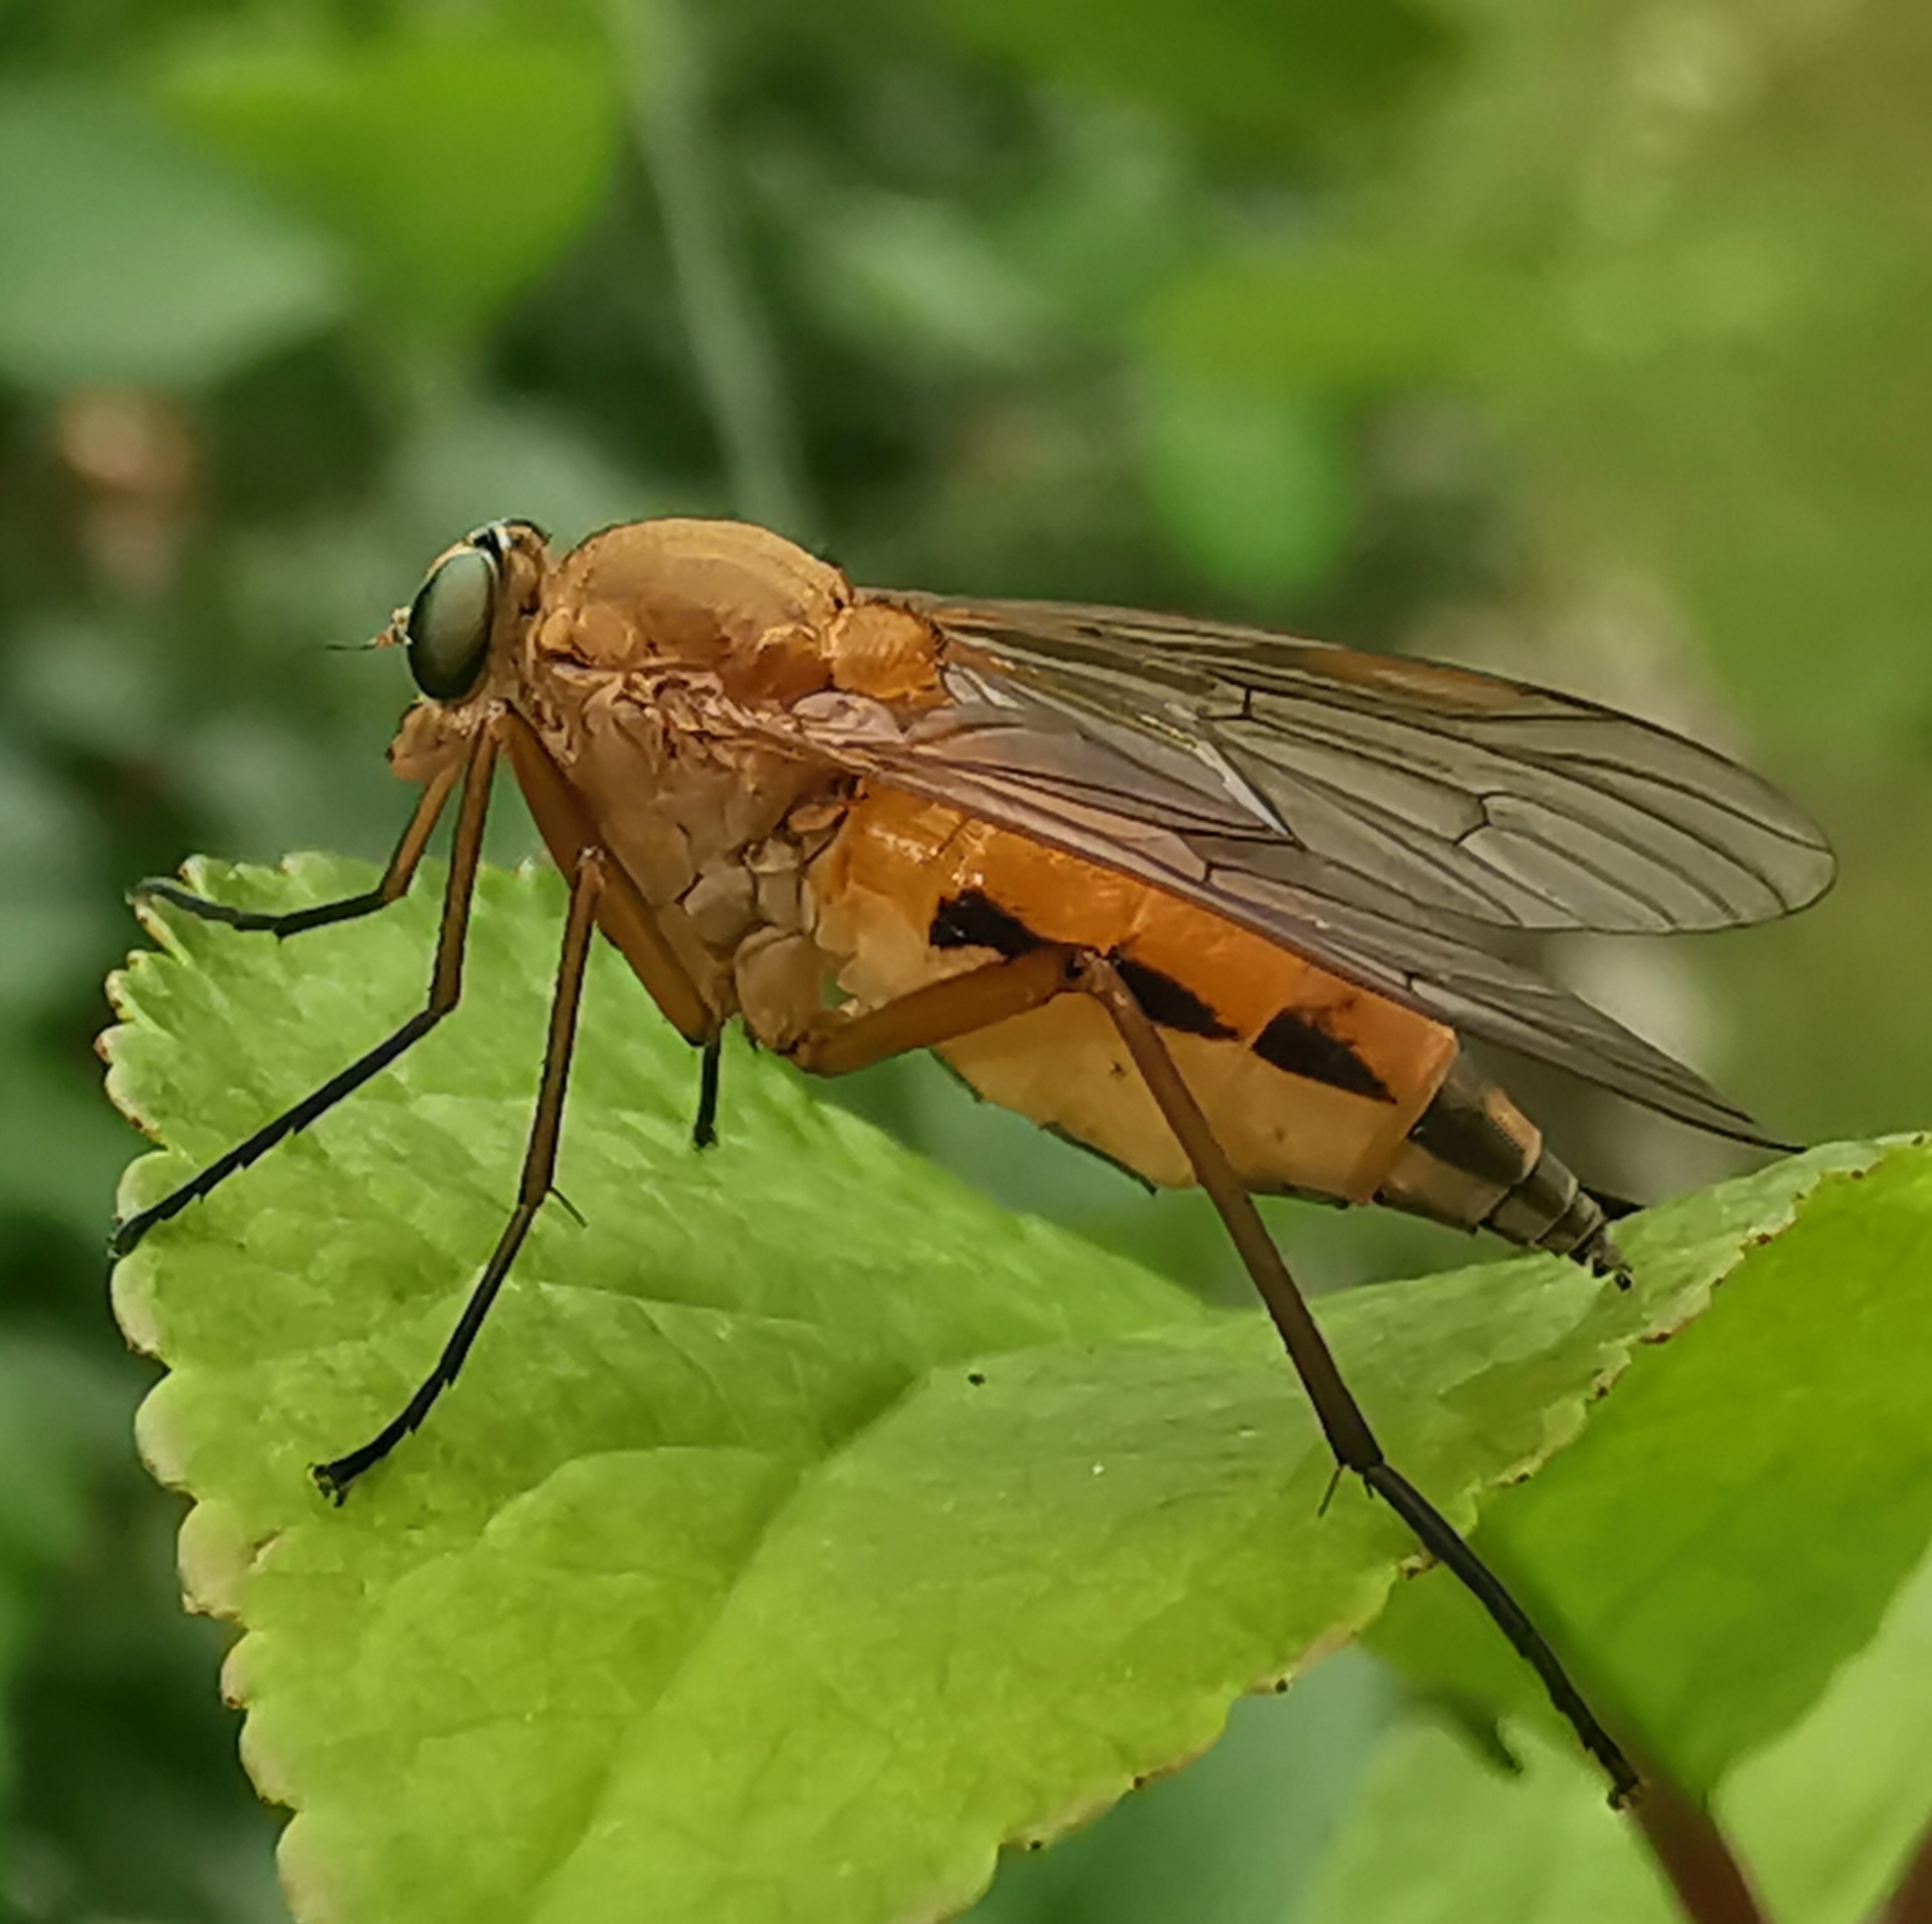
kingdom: Animalia
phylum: Arthropoda
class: Insecta
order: Diptera
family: Rhagionidae
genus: Rhagio
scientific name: Rhagio tringaria
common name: Marsh snipefly
